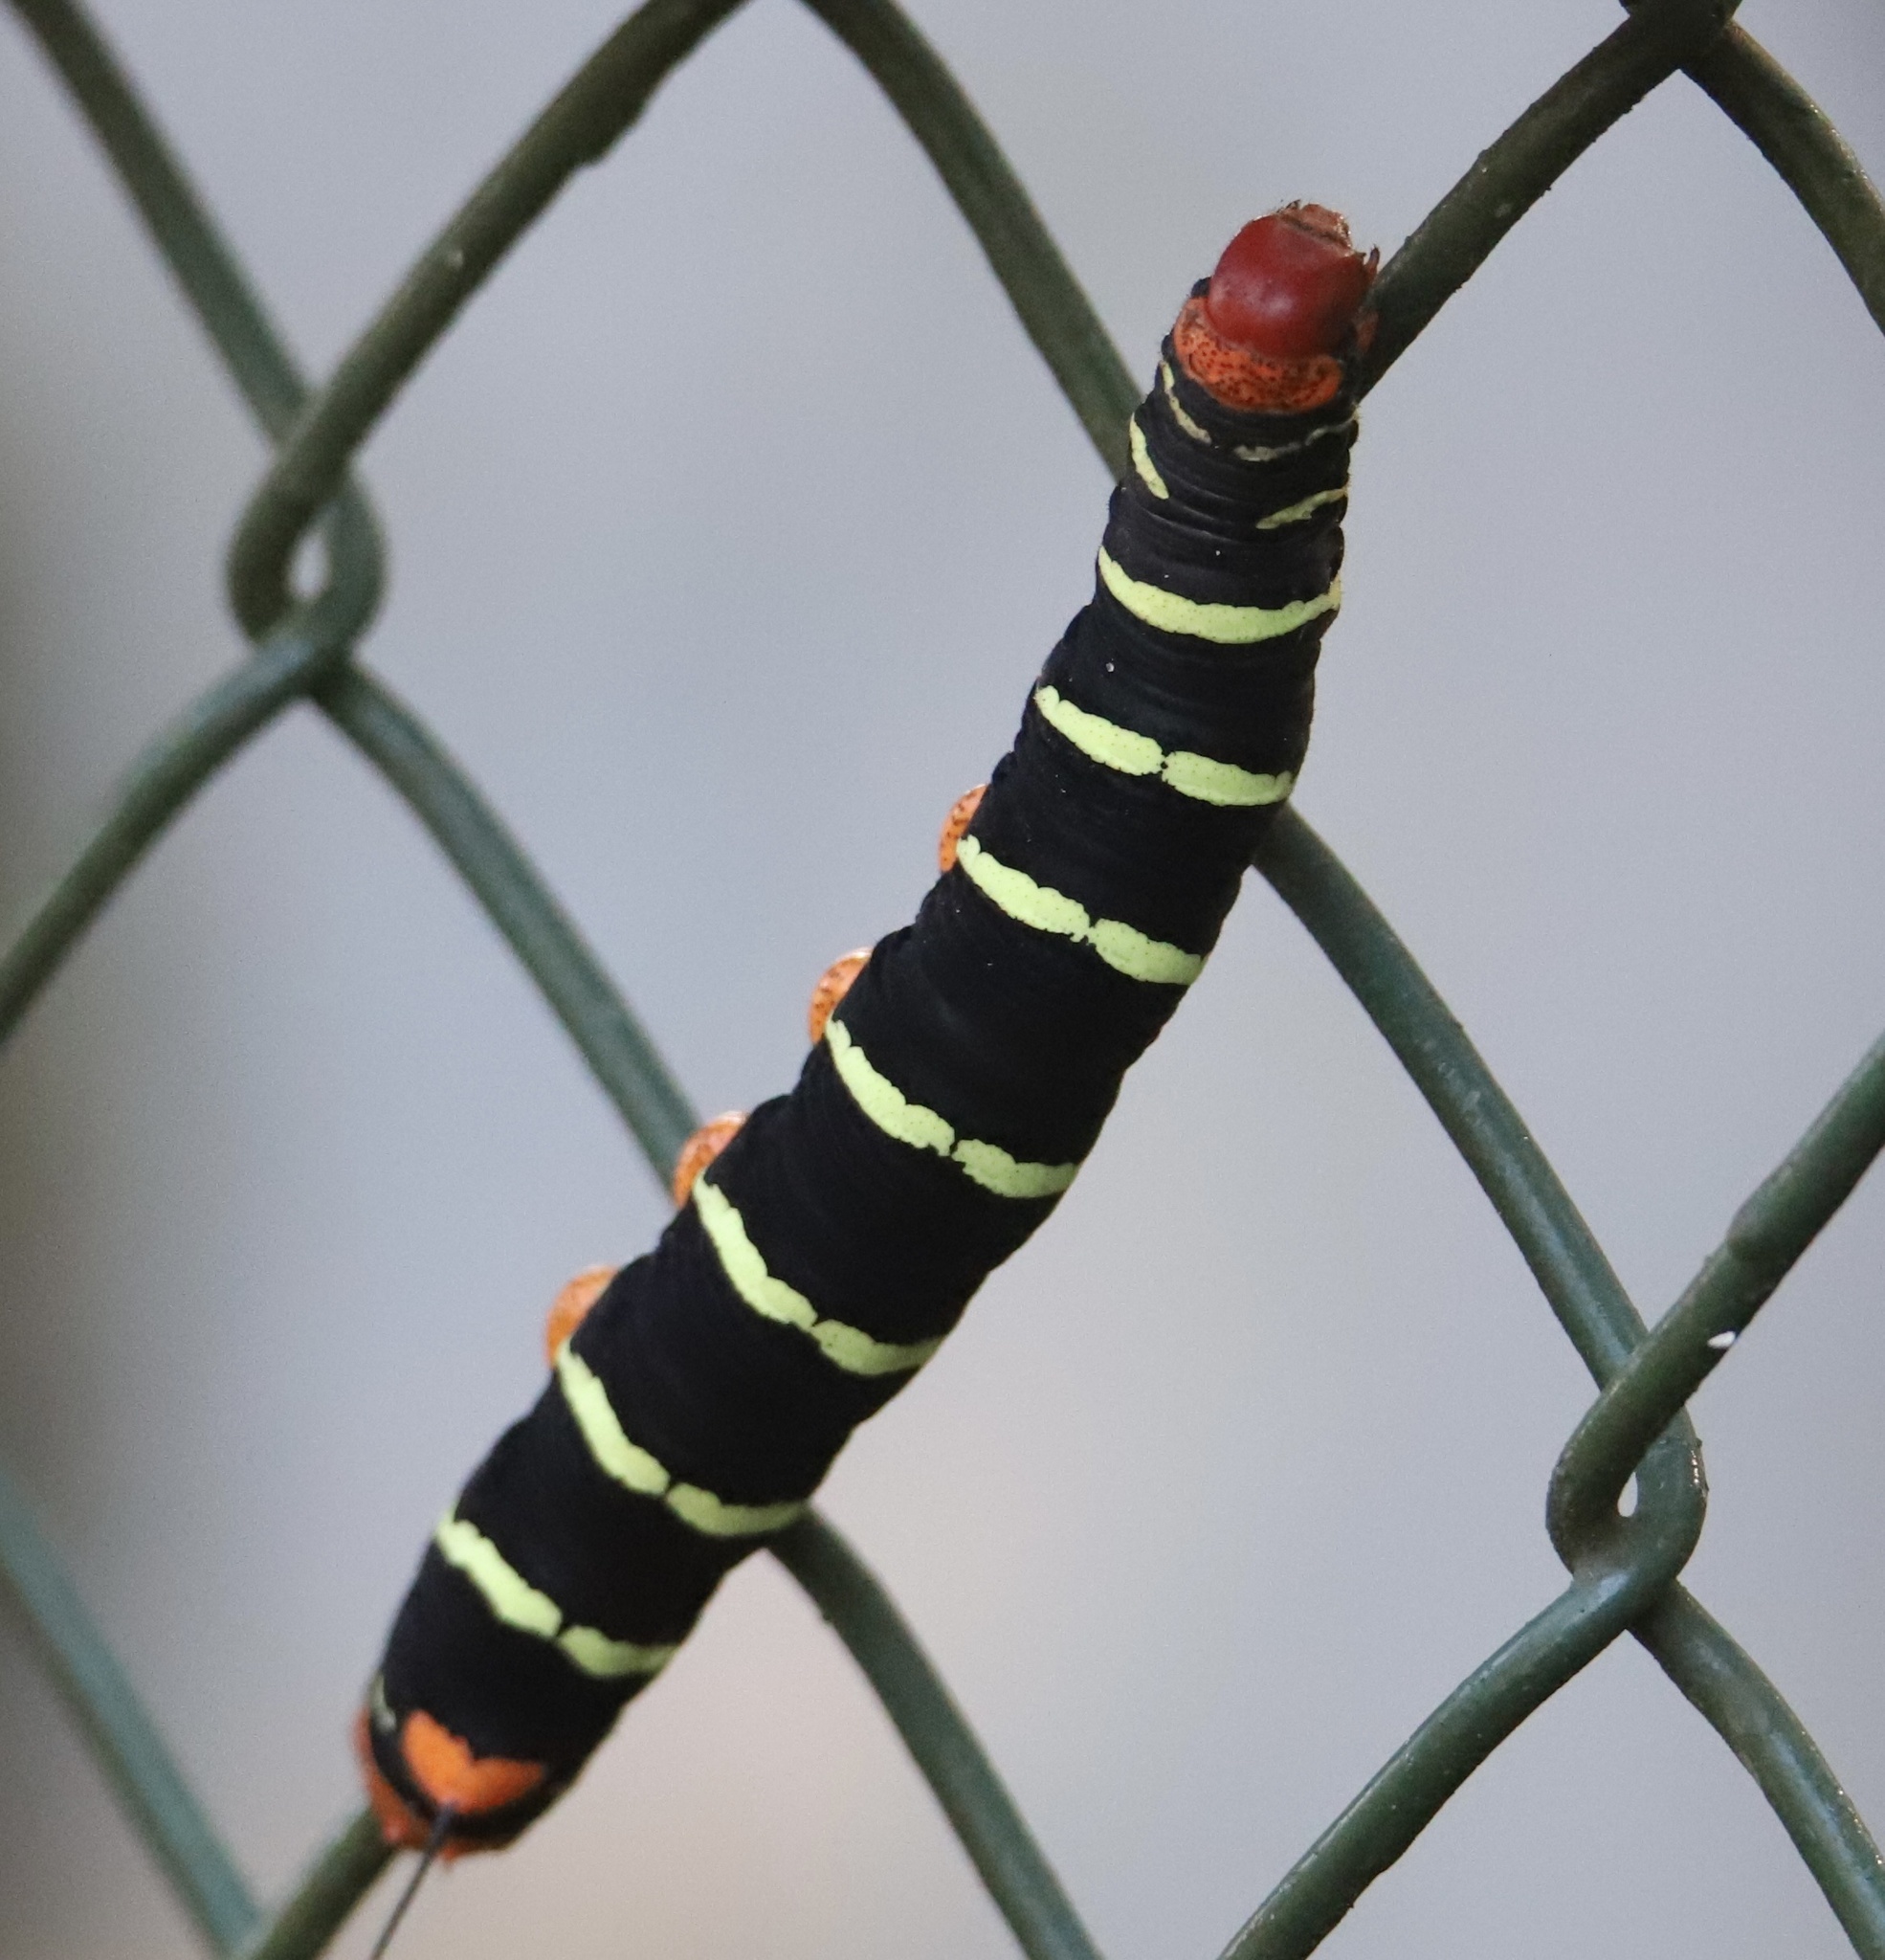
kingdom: Animalia
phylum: Arthropoda
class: Insecta
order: Lepidoptera
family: Sphingidae
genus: Pseudosphinx
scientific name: Pseudosphinx tetrio
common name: Tetrio sphinx
